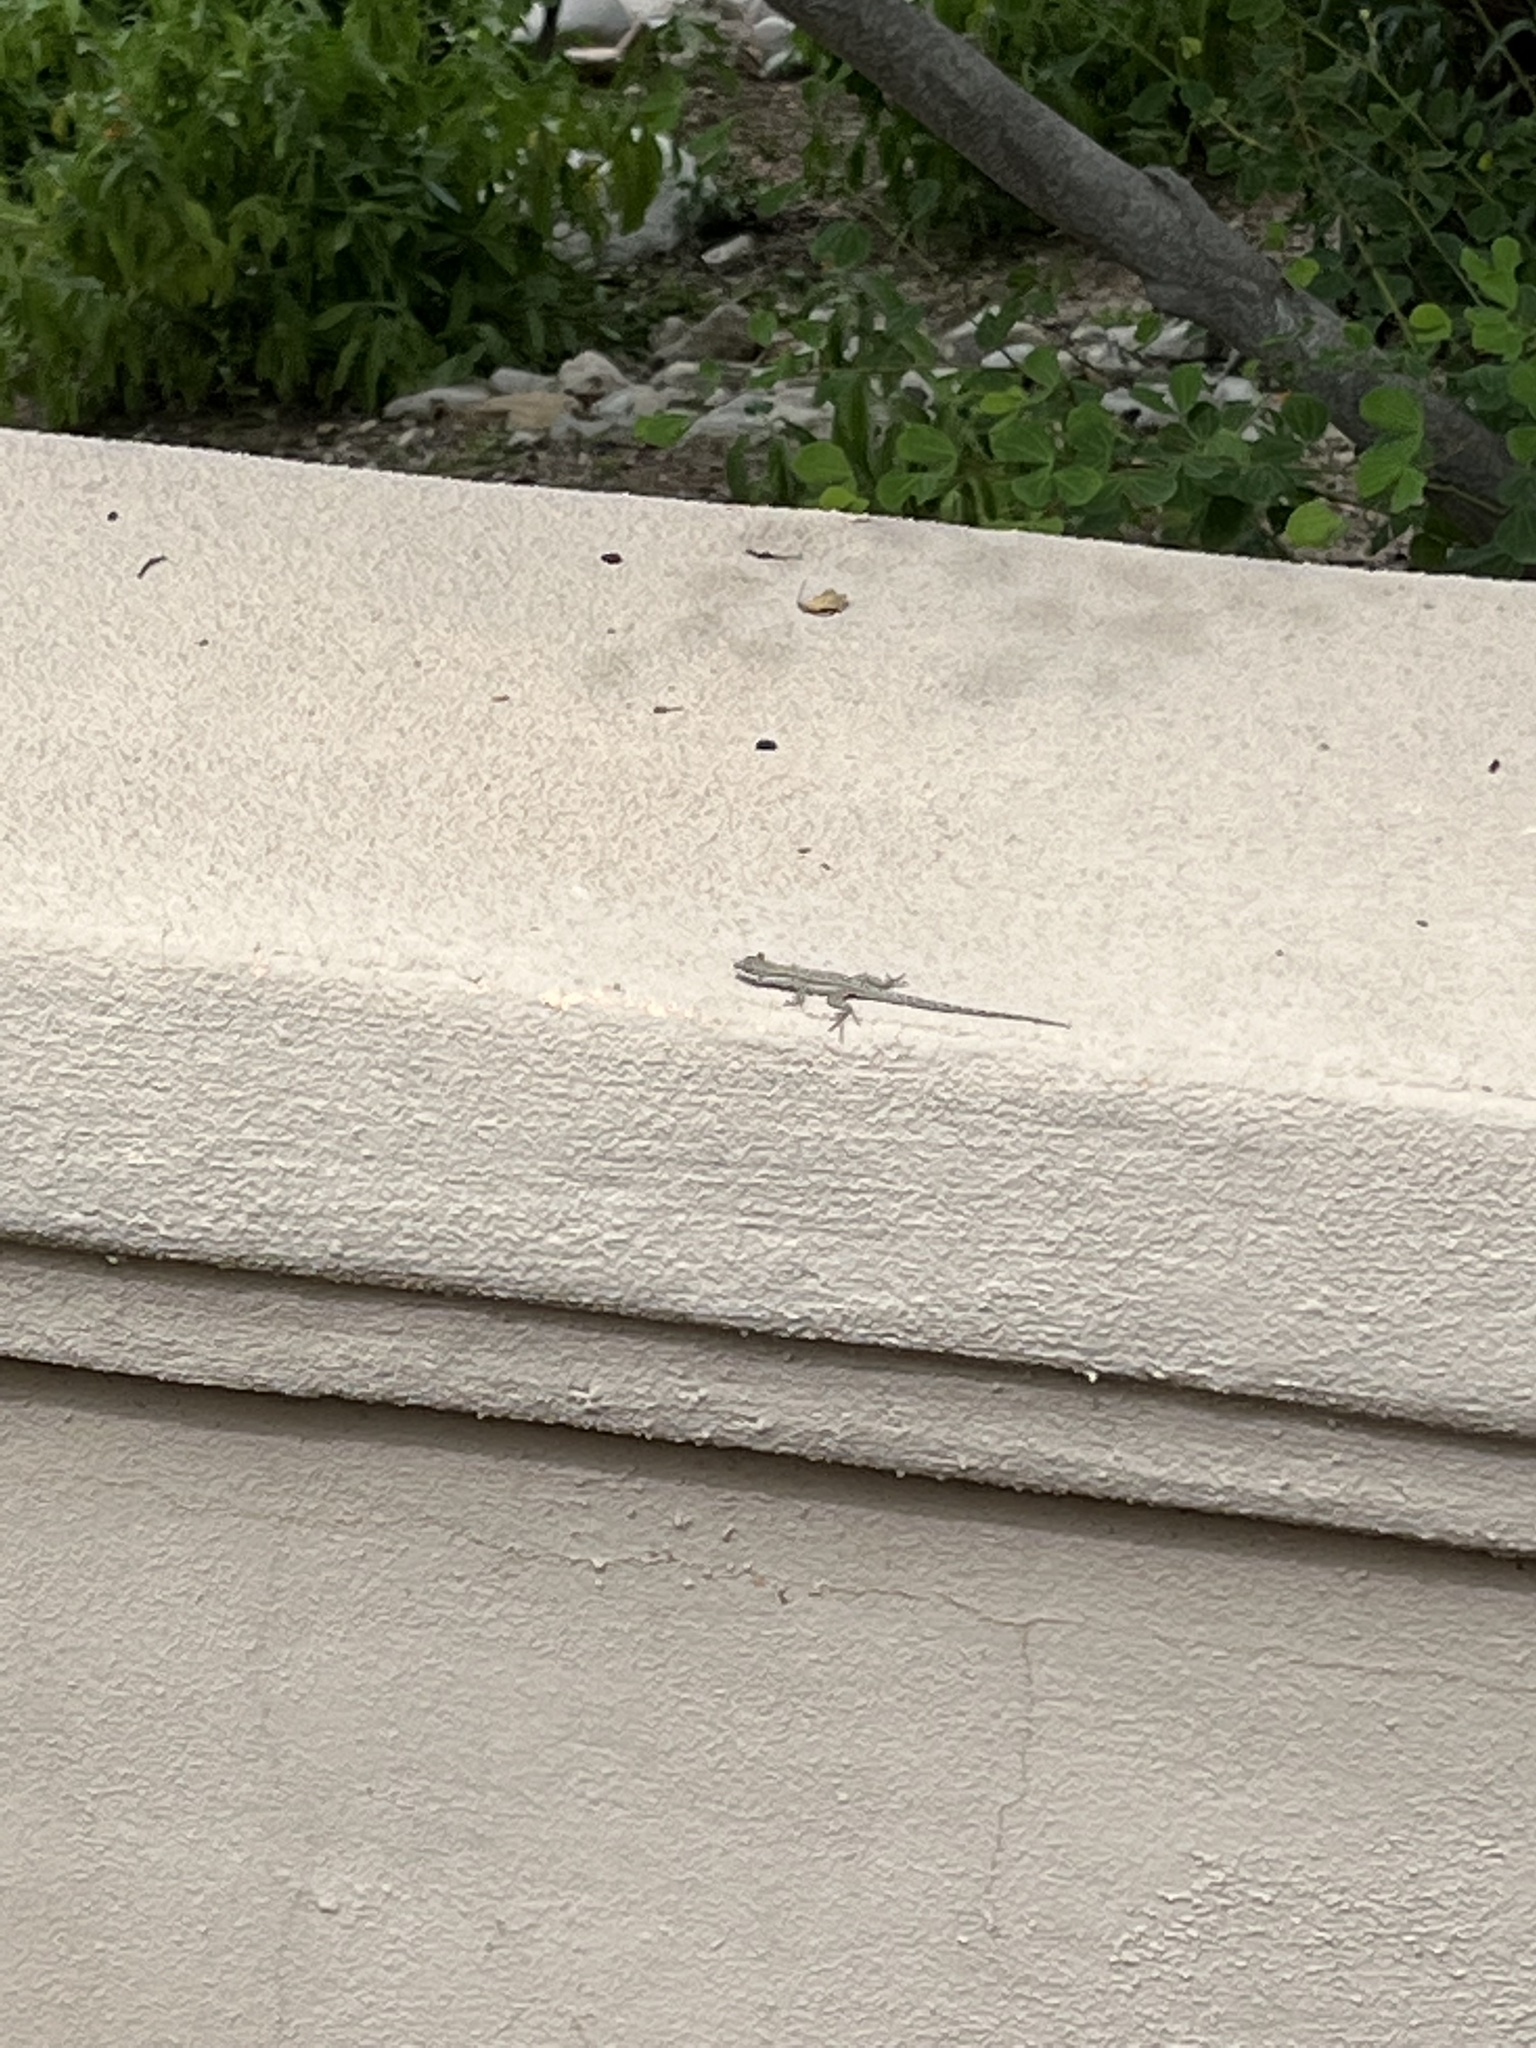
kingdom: Animalia
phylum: Chordata
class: Squamata
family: Phrynosomatidae
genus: Urosaurus
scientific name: Urosaurus ornatus
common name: Ornate tree lizard
